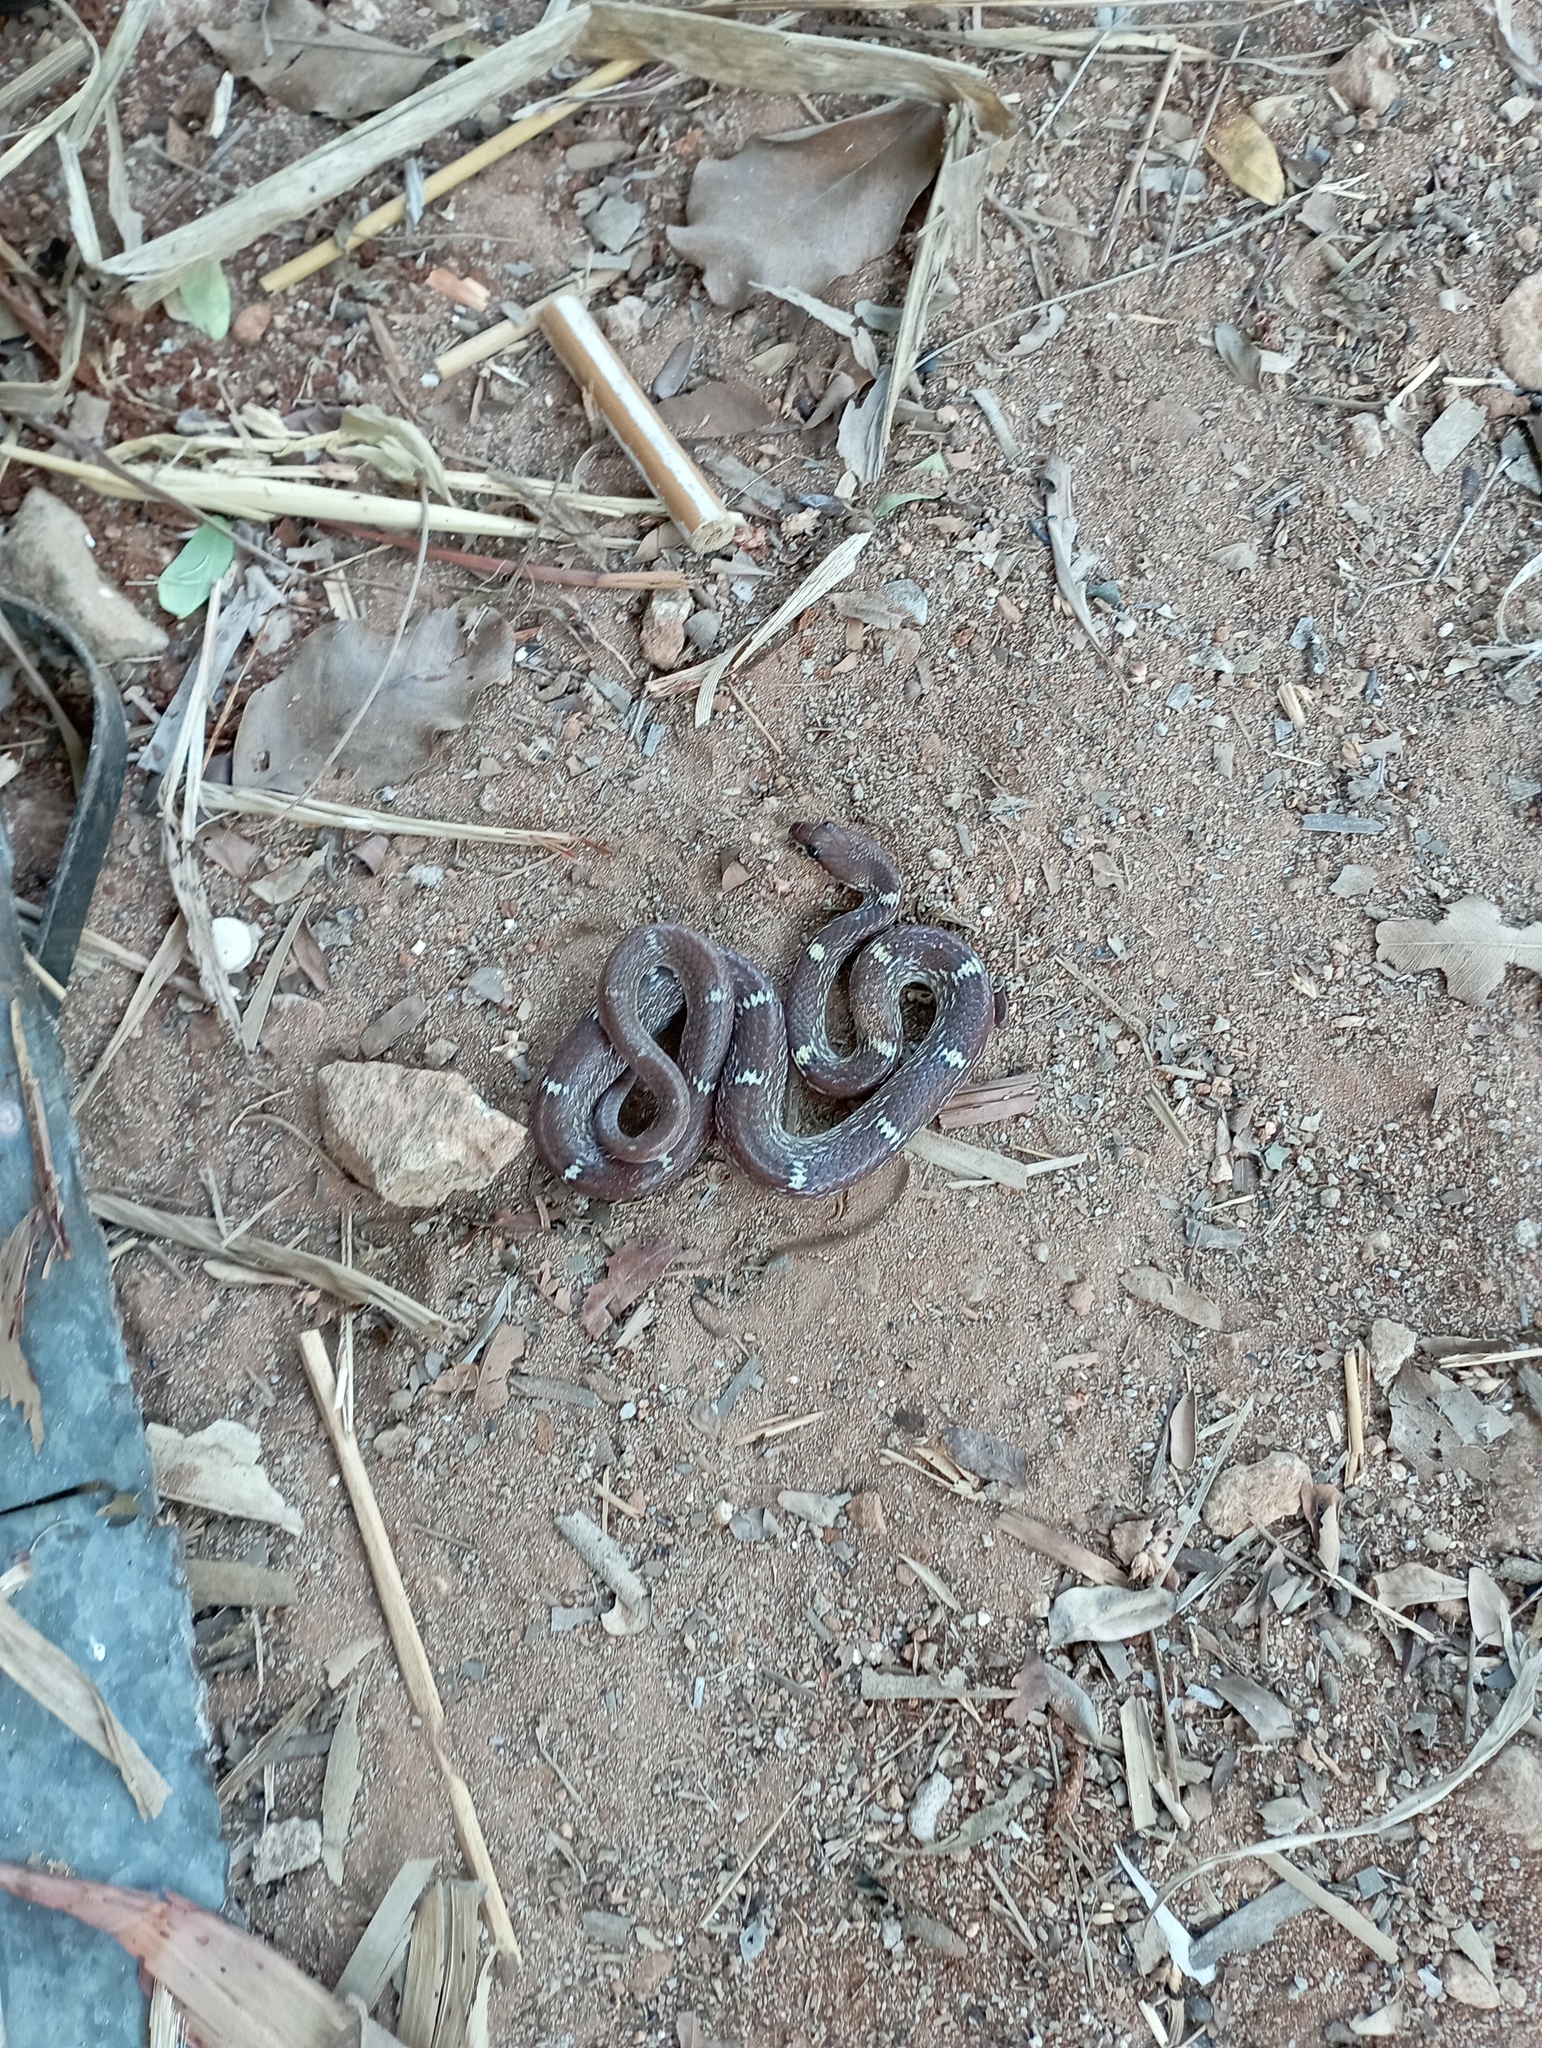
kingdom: Animalia
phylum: Chordata
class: Squamata
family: Colubridae
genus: Lycodon
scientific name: Lycodon fasciolatus
